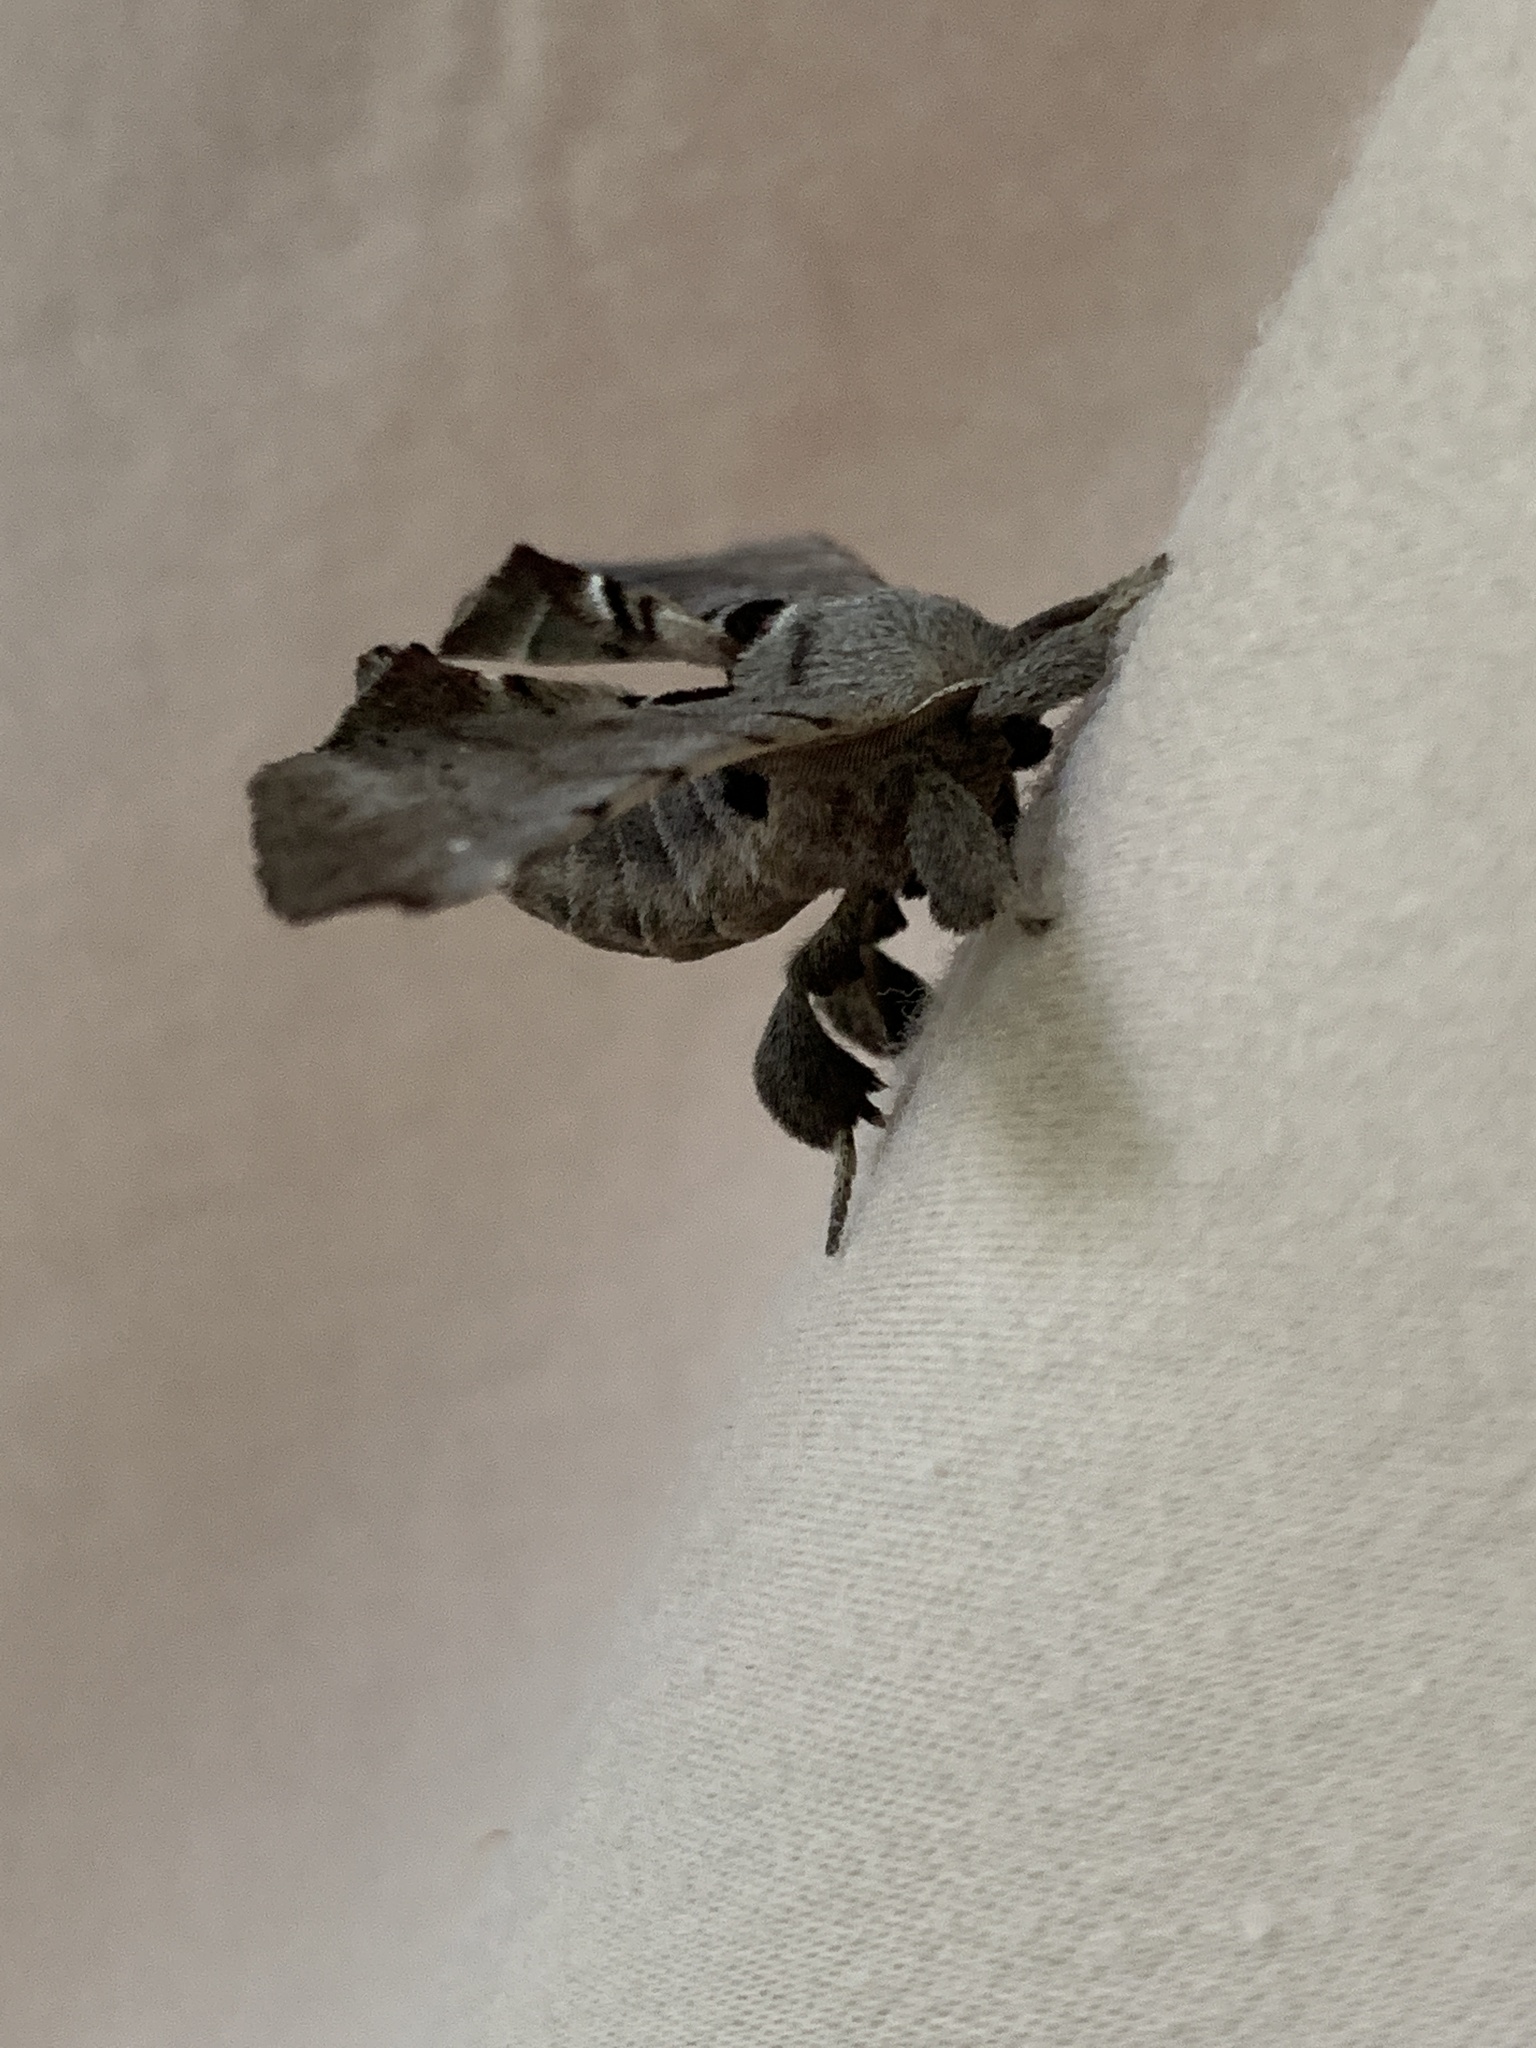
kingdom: Animalia
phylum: Arthropoda
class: Insecta
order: Lepidoptera
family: Apatelodidae
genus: Hygrochroa
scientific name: Hygrochroa Apatelodes torrefacta
